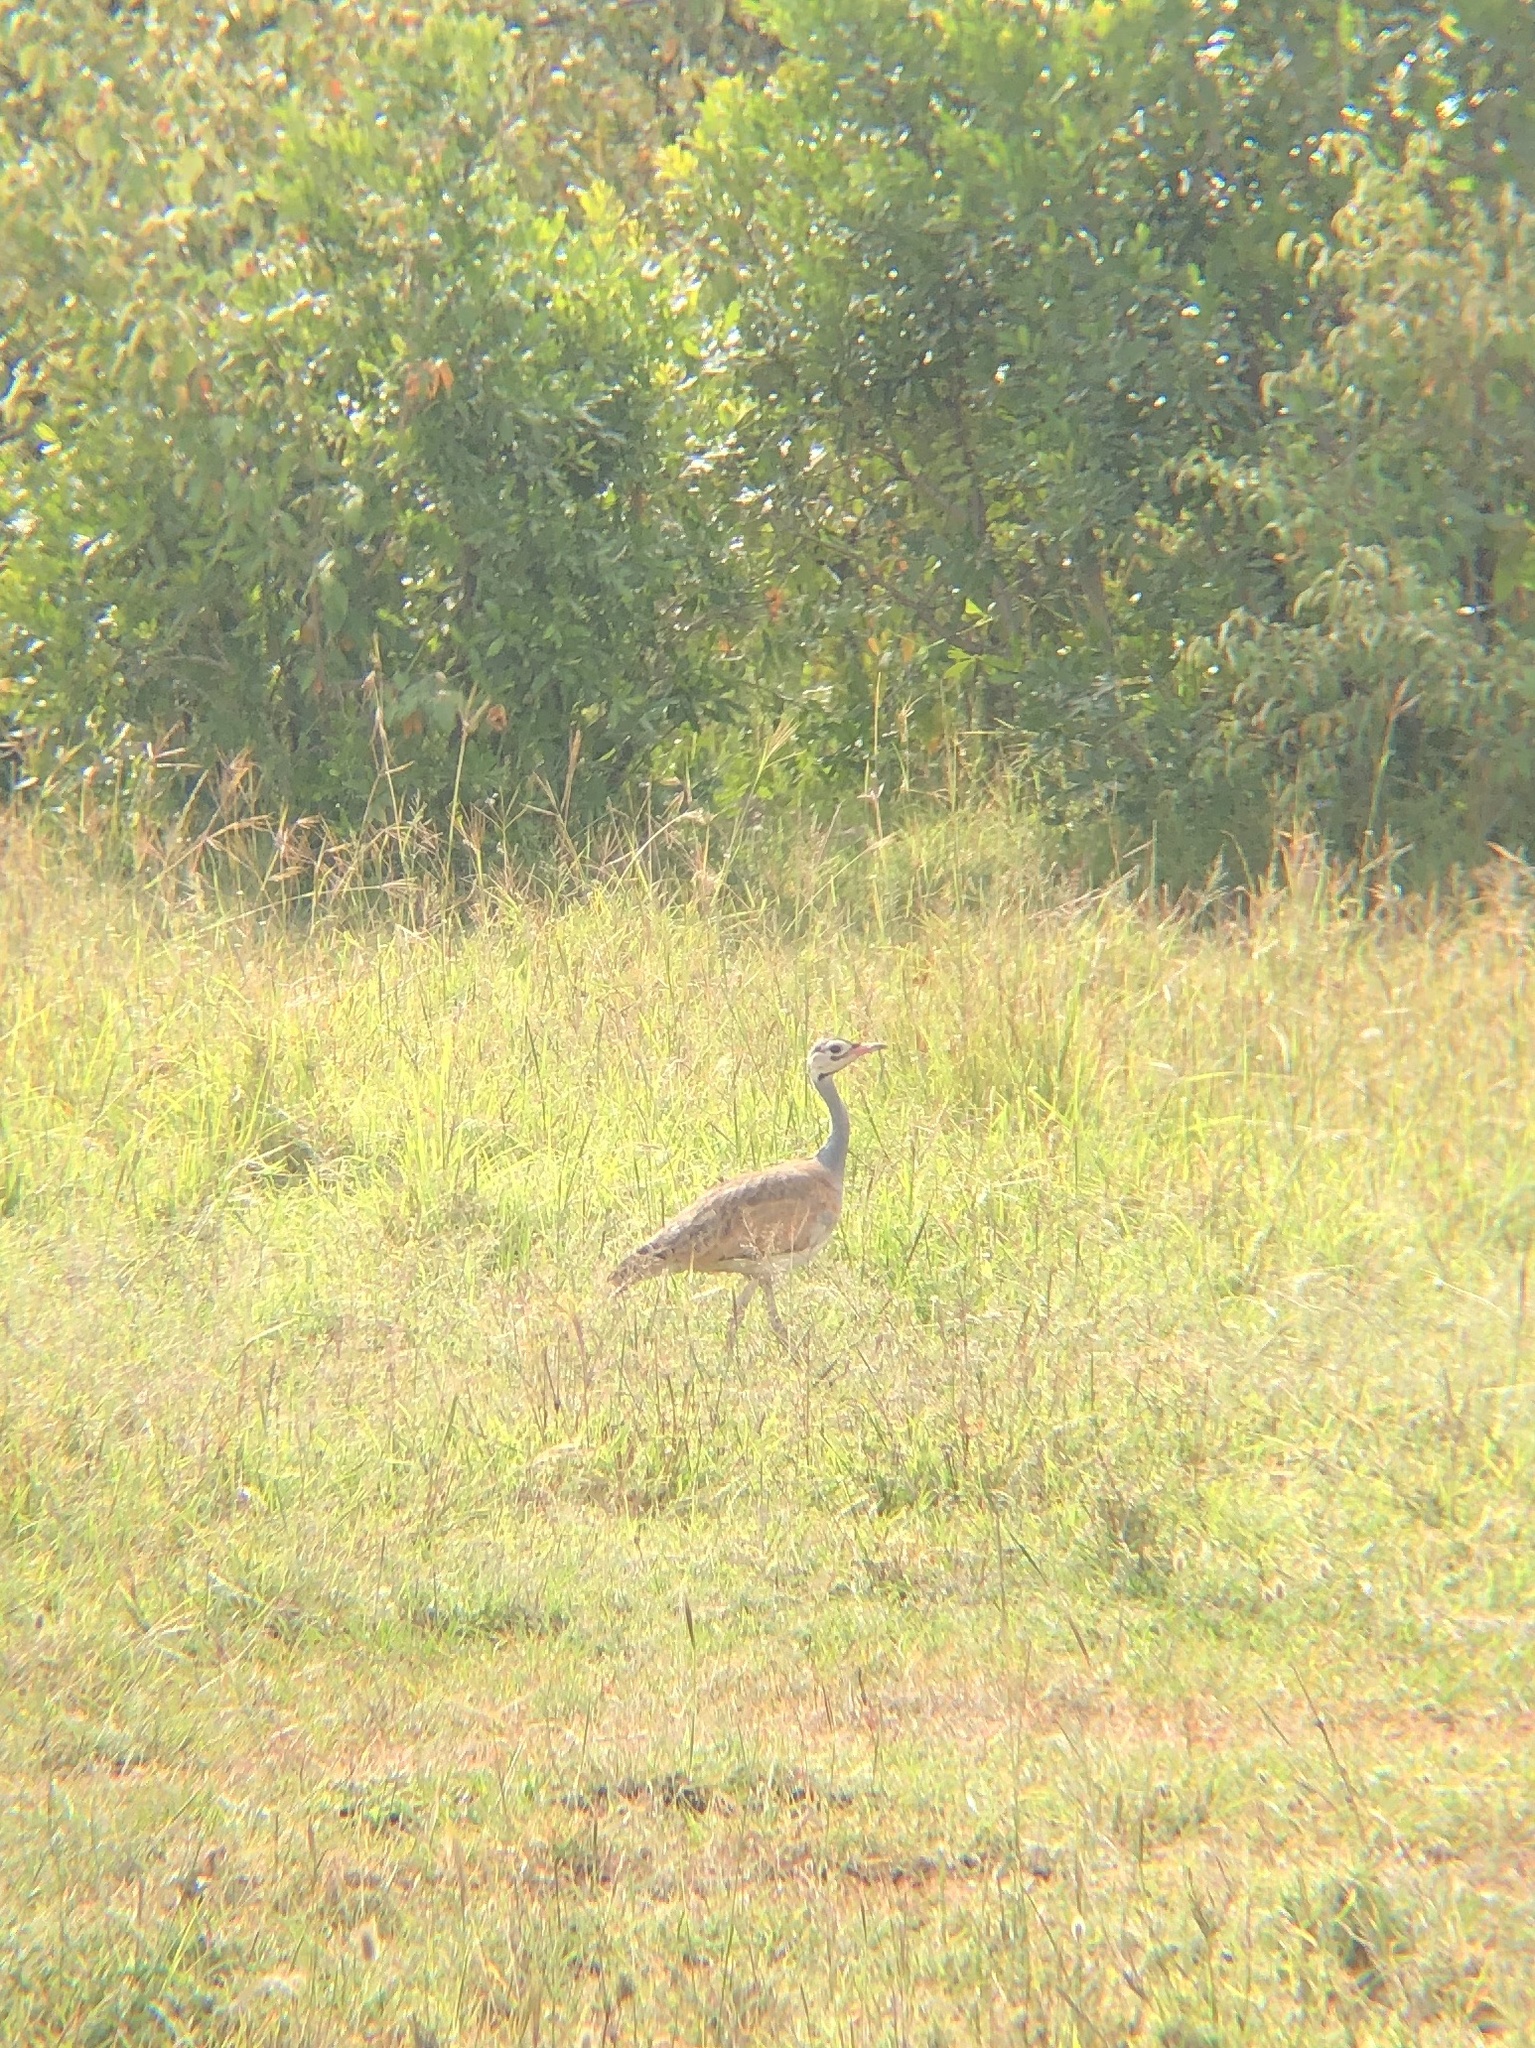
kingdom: Animalia
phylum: Chordata
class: Aves
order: Otidiformes
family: Otididae
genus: Eupodotis
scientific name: Eupodotis senegalensis
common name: White-bellied bustard
